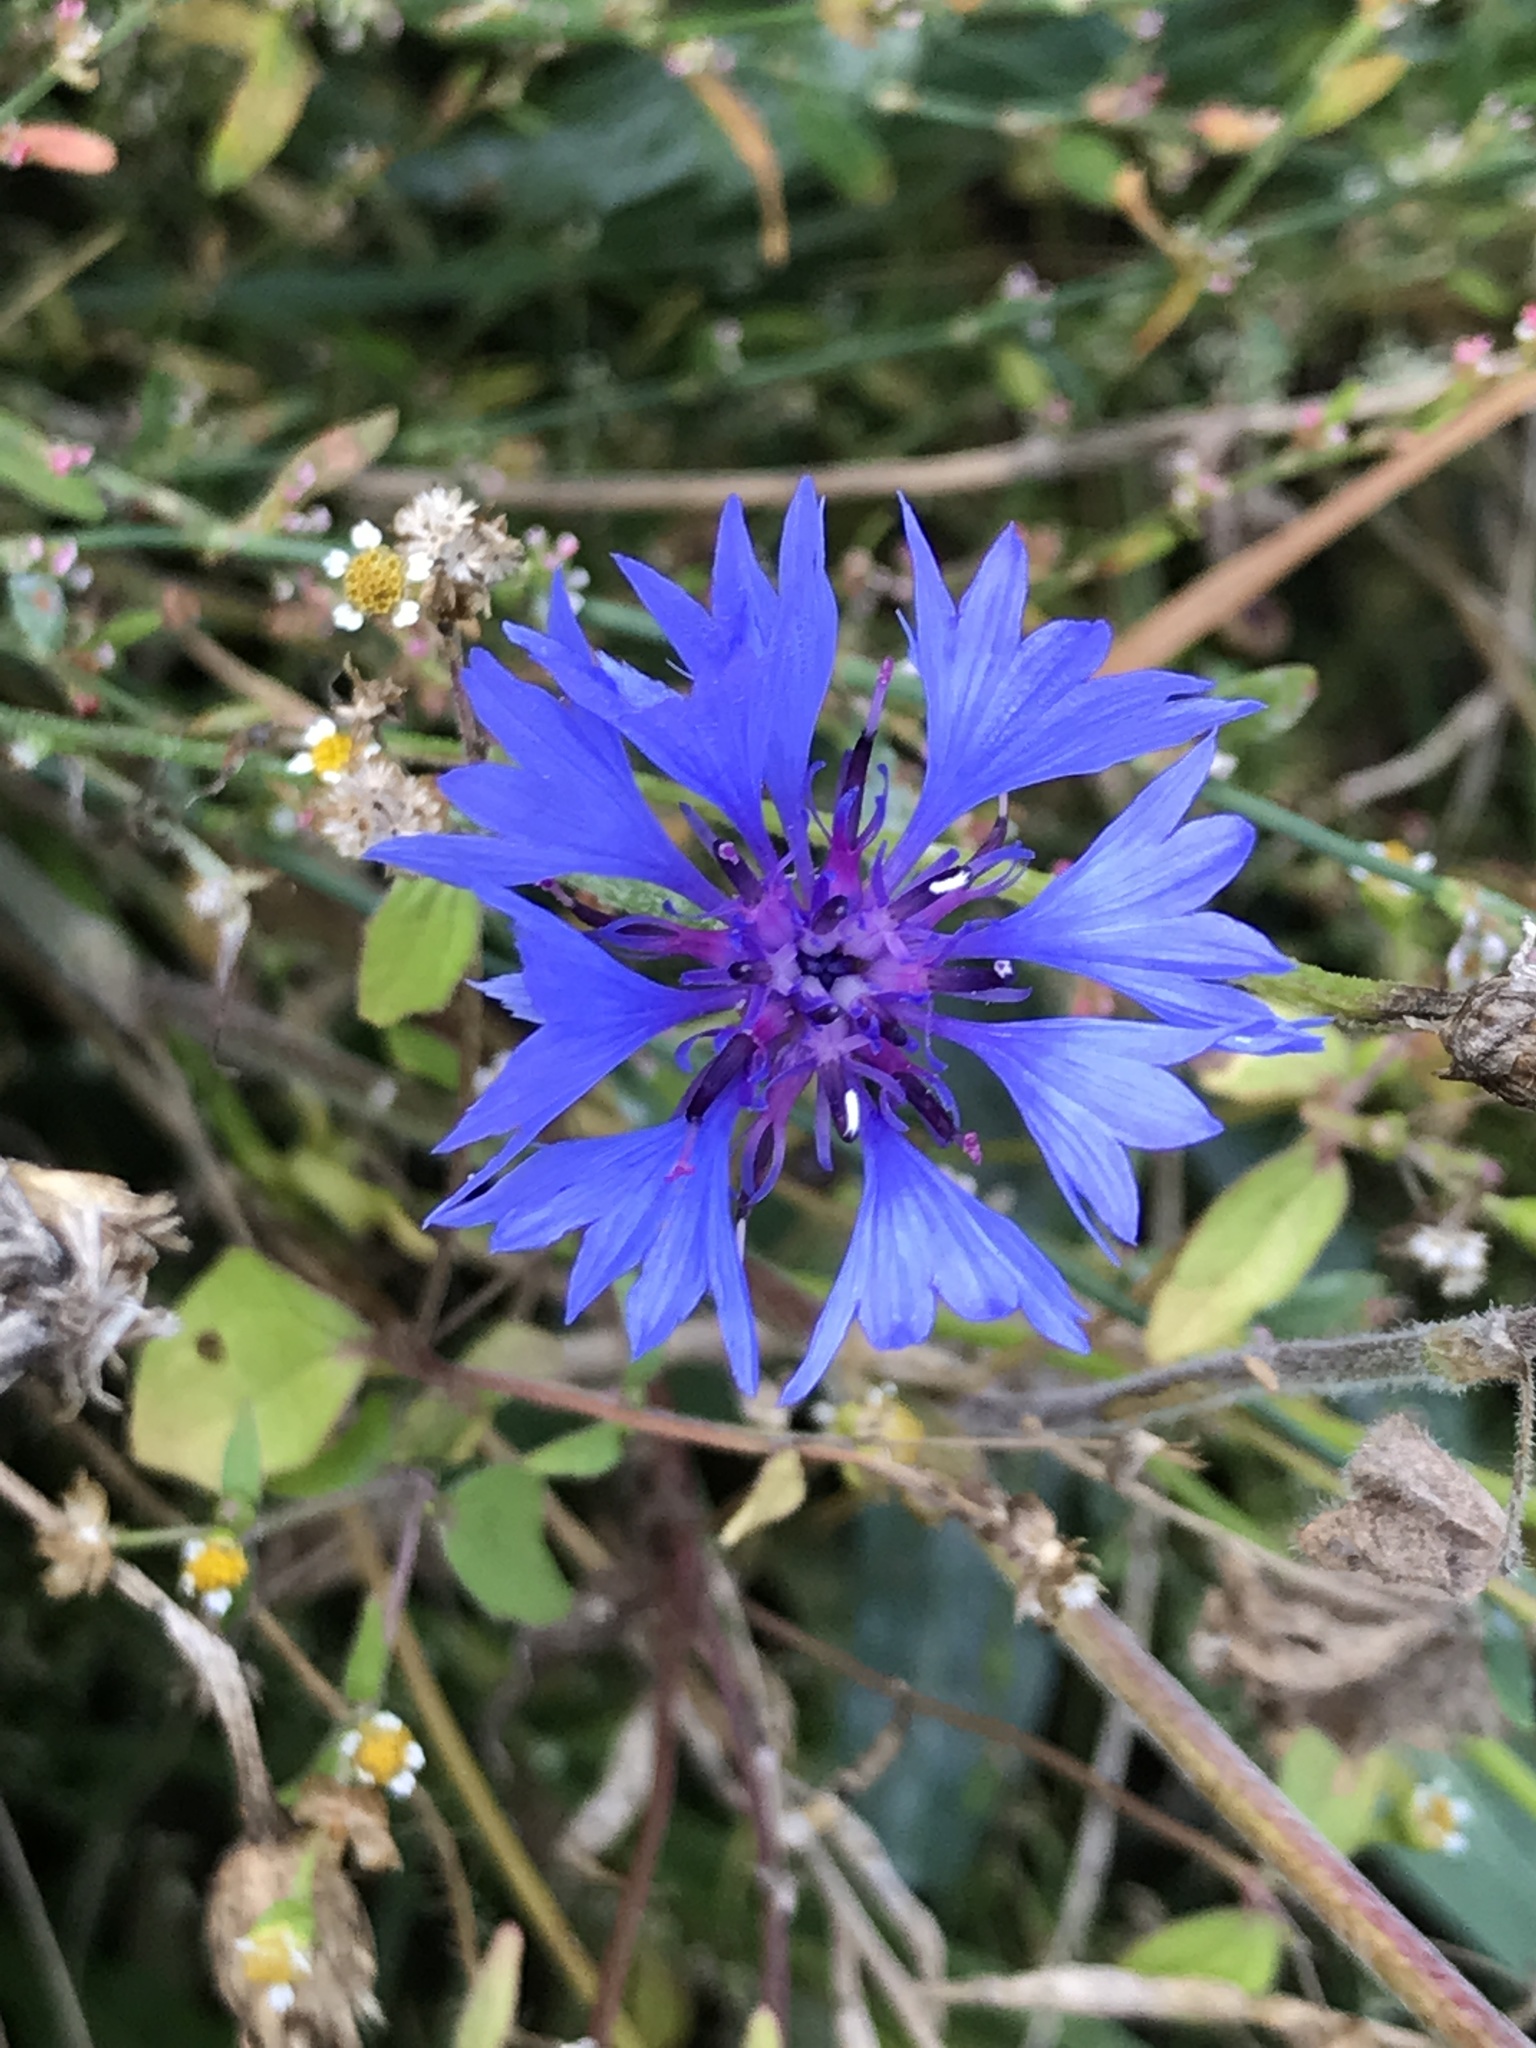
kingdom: Plantae
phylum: Tracheophyta
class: Magnoliopsida
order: Asterales
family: Asteraceae
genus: Centaurea
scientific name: Centaurea cyanus
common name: Cornflower
